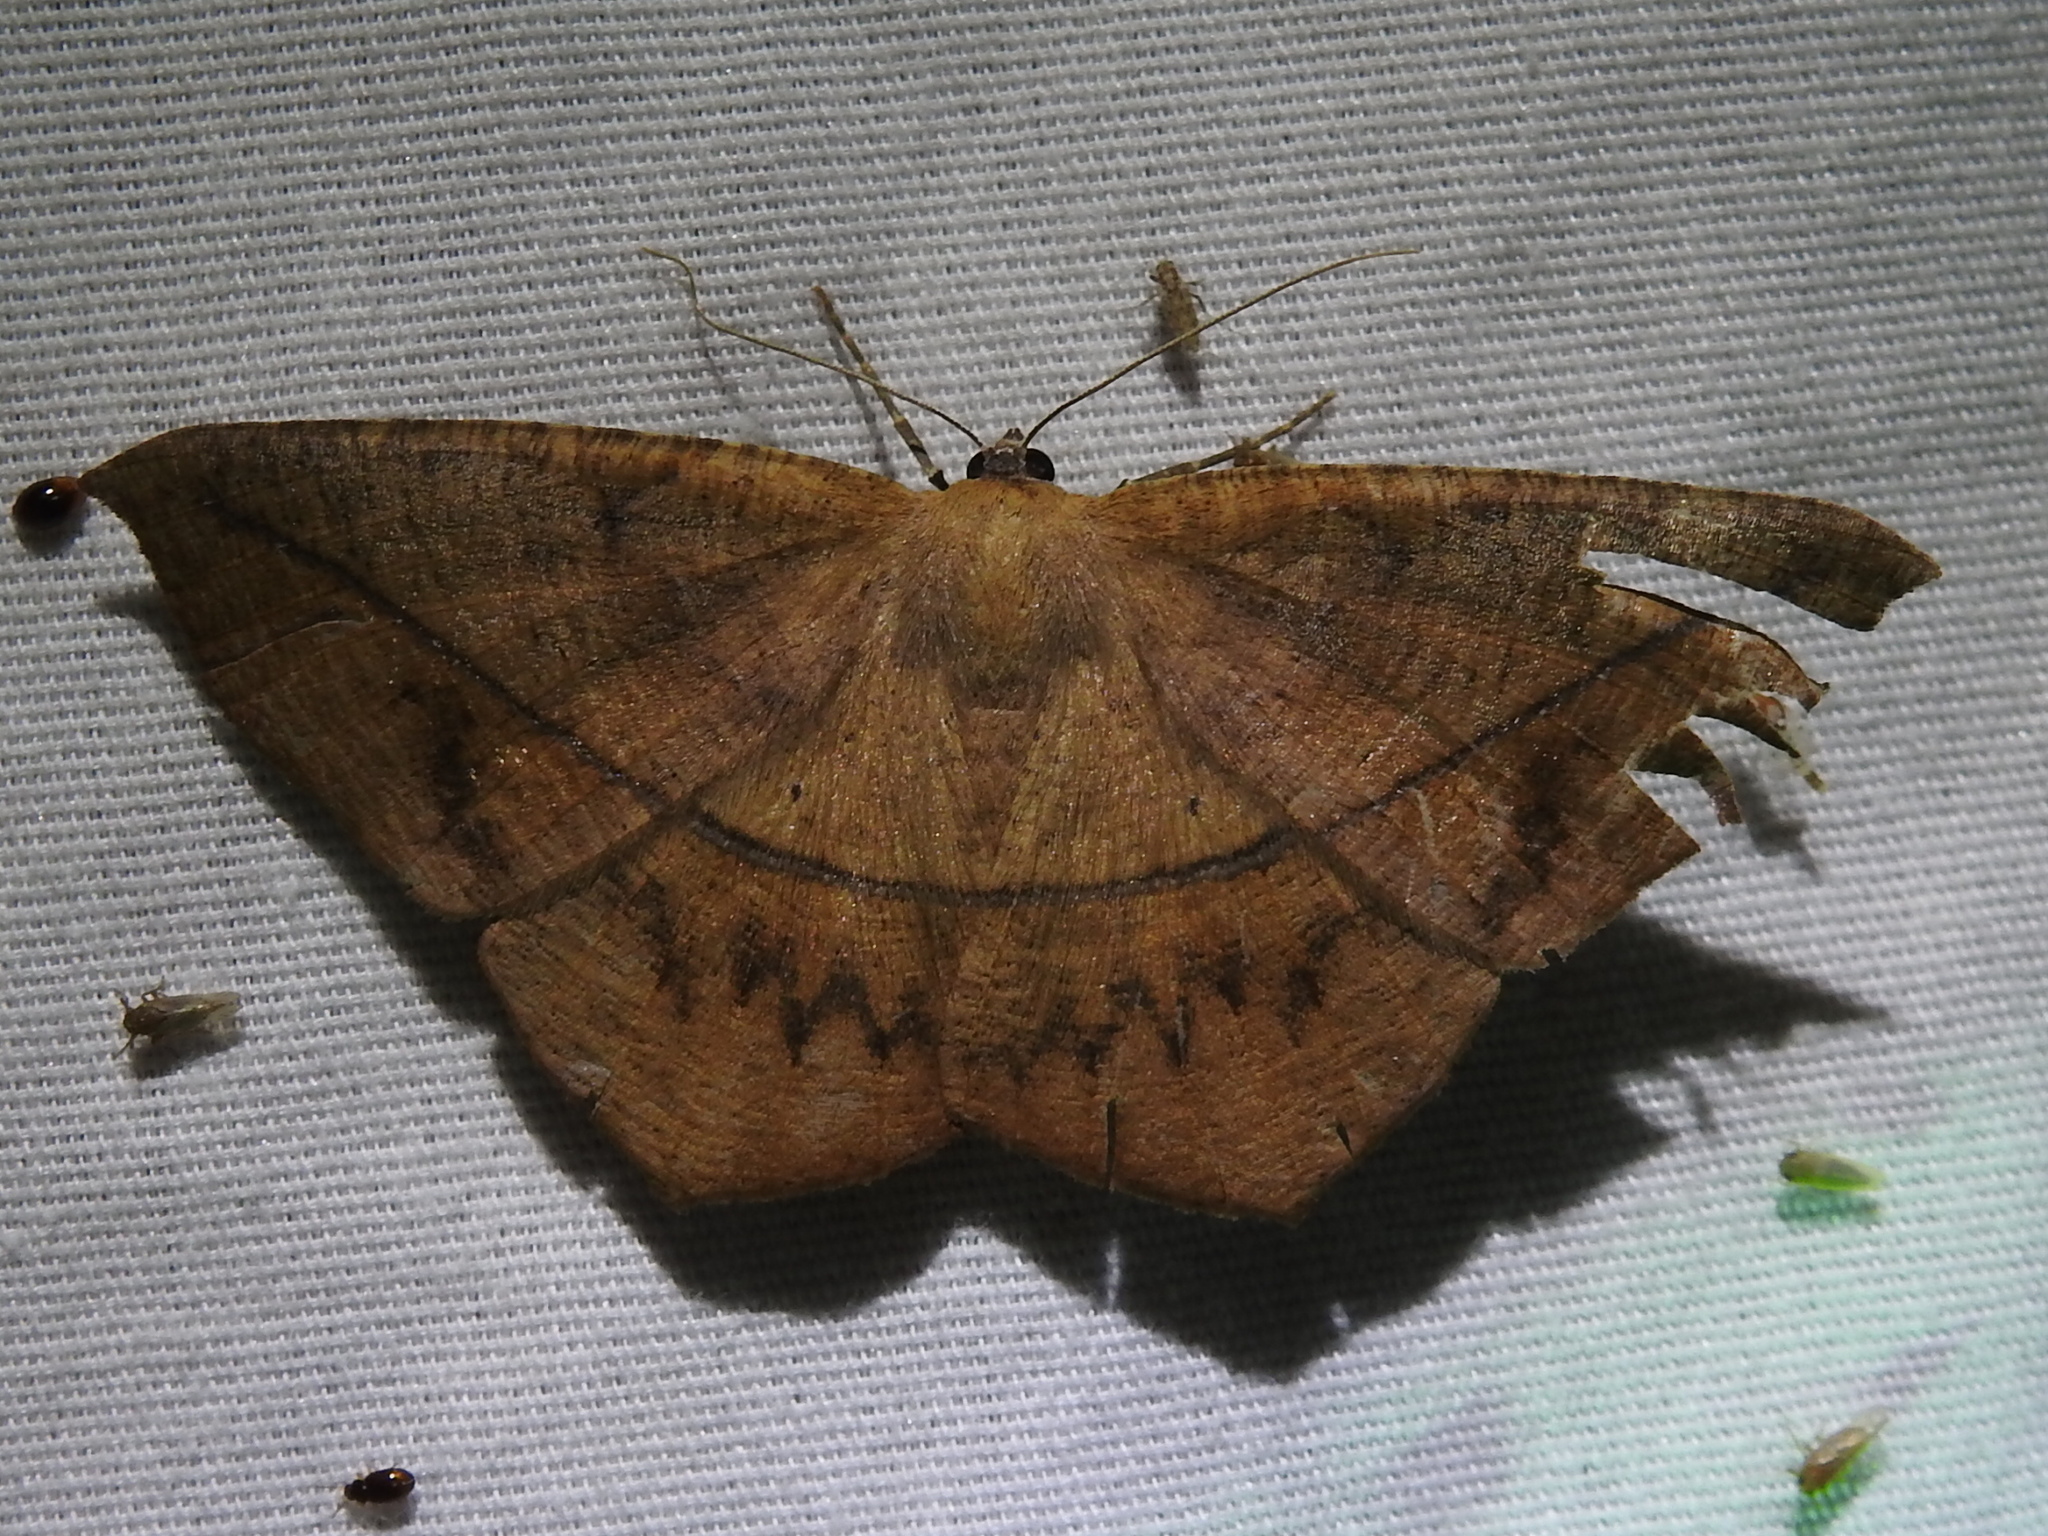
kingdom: Animalia
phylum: Arthropoda
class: Insecta
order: Lepidoptera
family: Geometridae
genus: Prochoerodes
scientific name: Prochoerodes lineola
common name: Large maple spanworm
